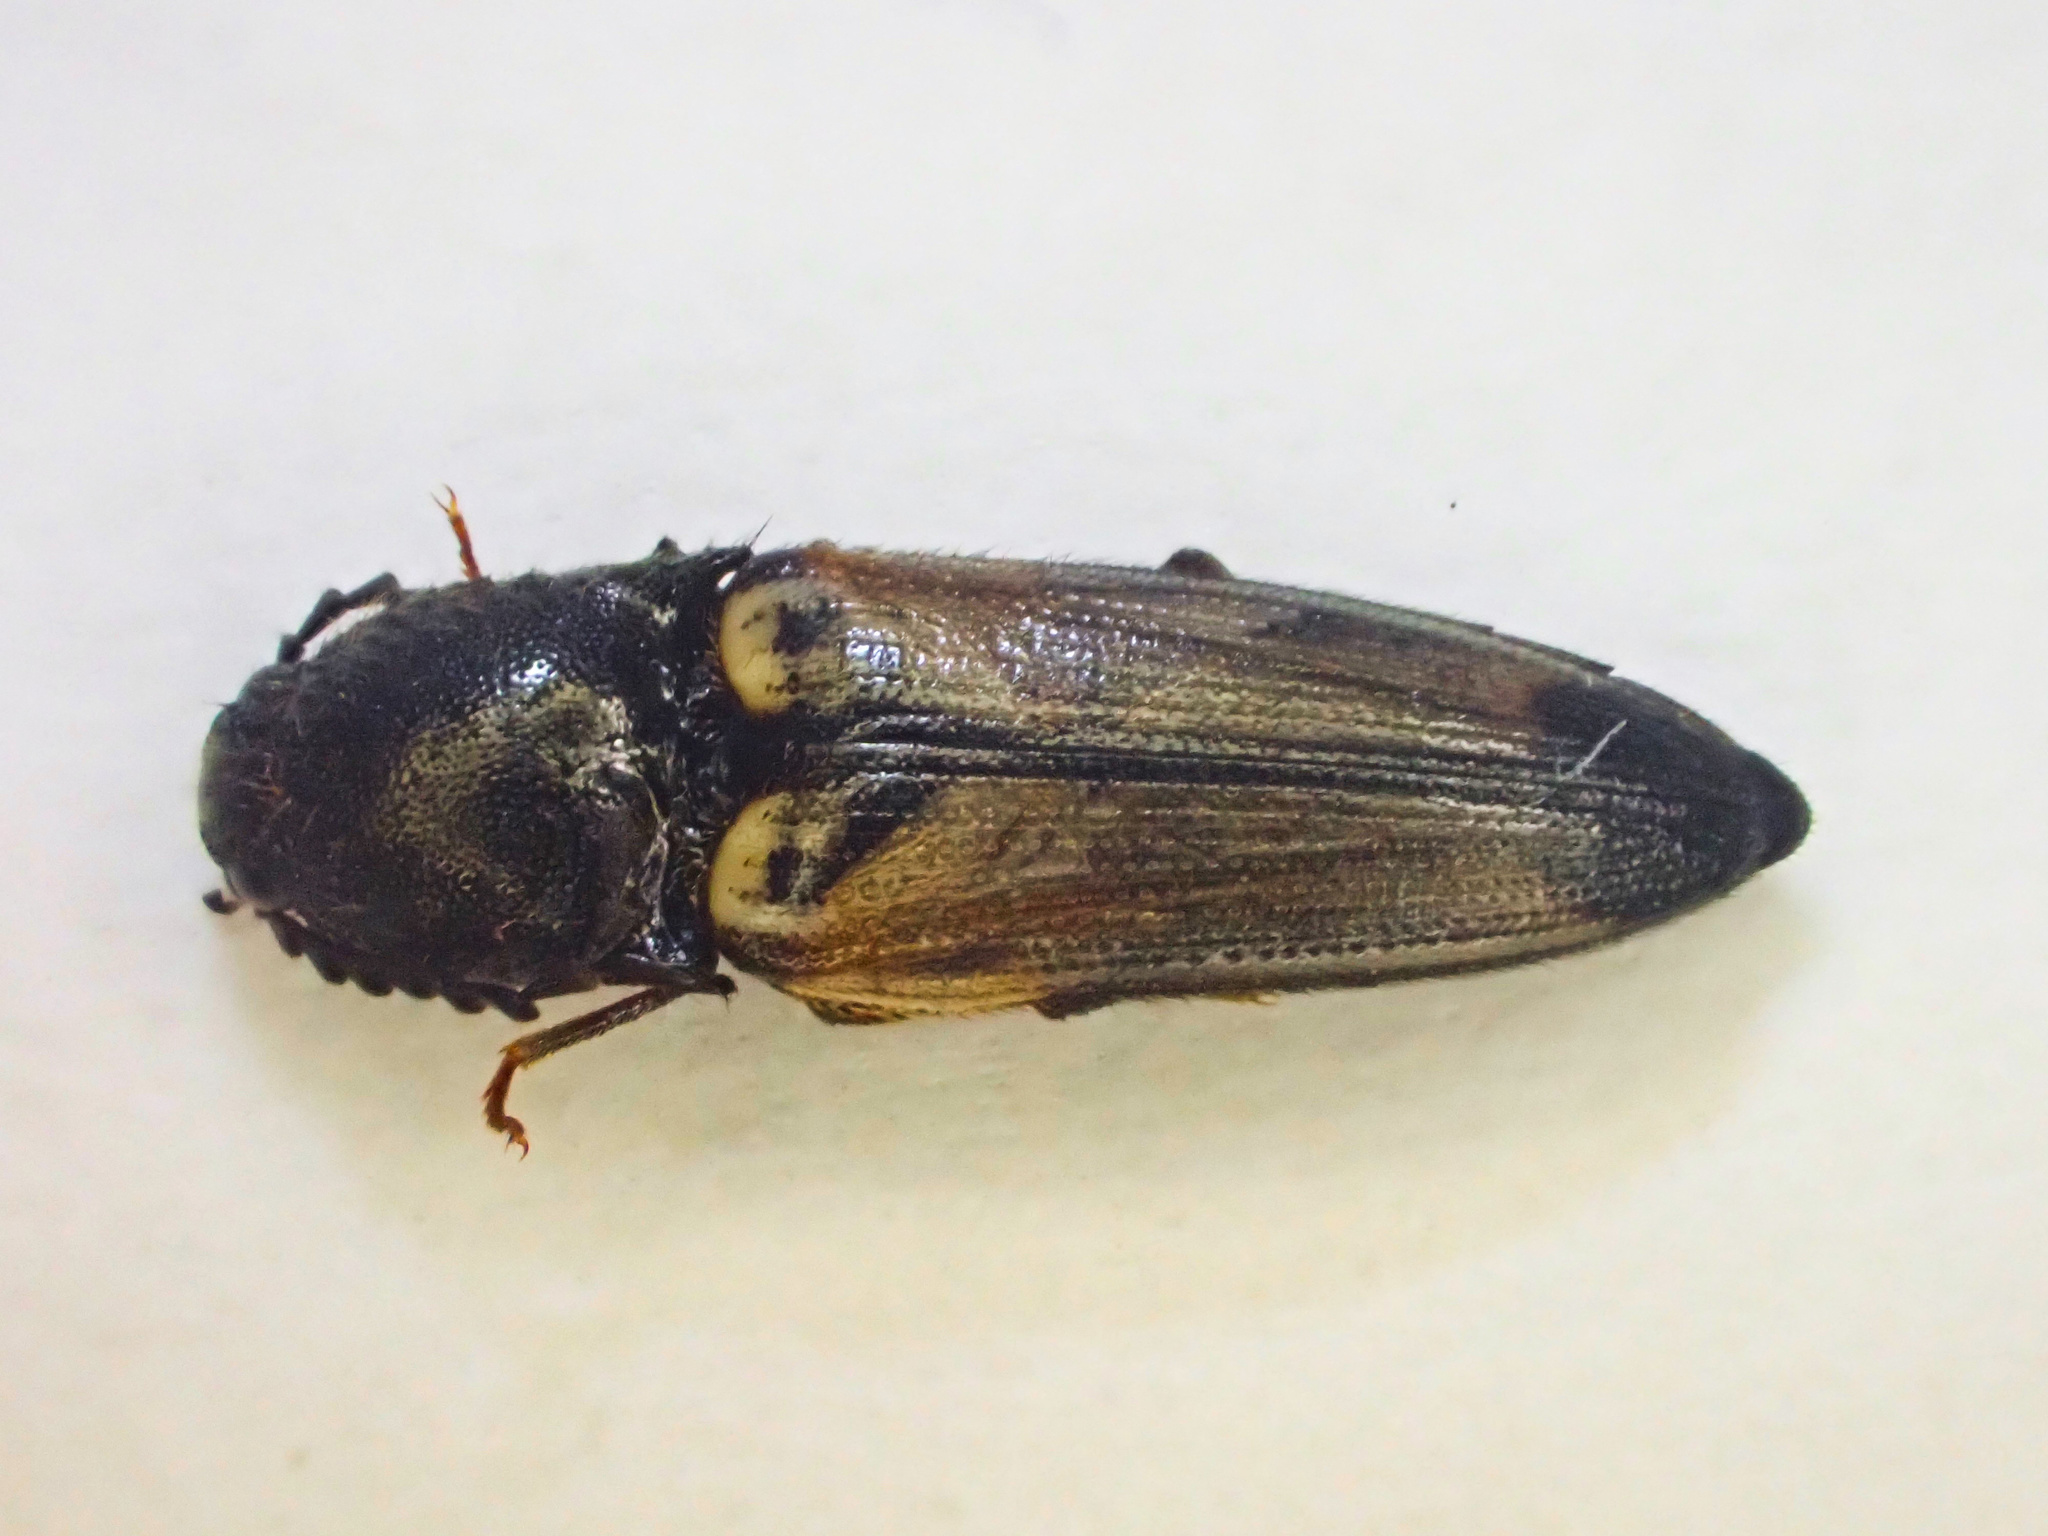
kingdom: Animalia
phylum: Arthropoda
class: Insecta
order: Coleoptera
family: Elateridae
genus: Ampedus
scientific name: Ampedus linteus
